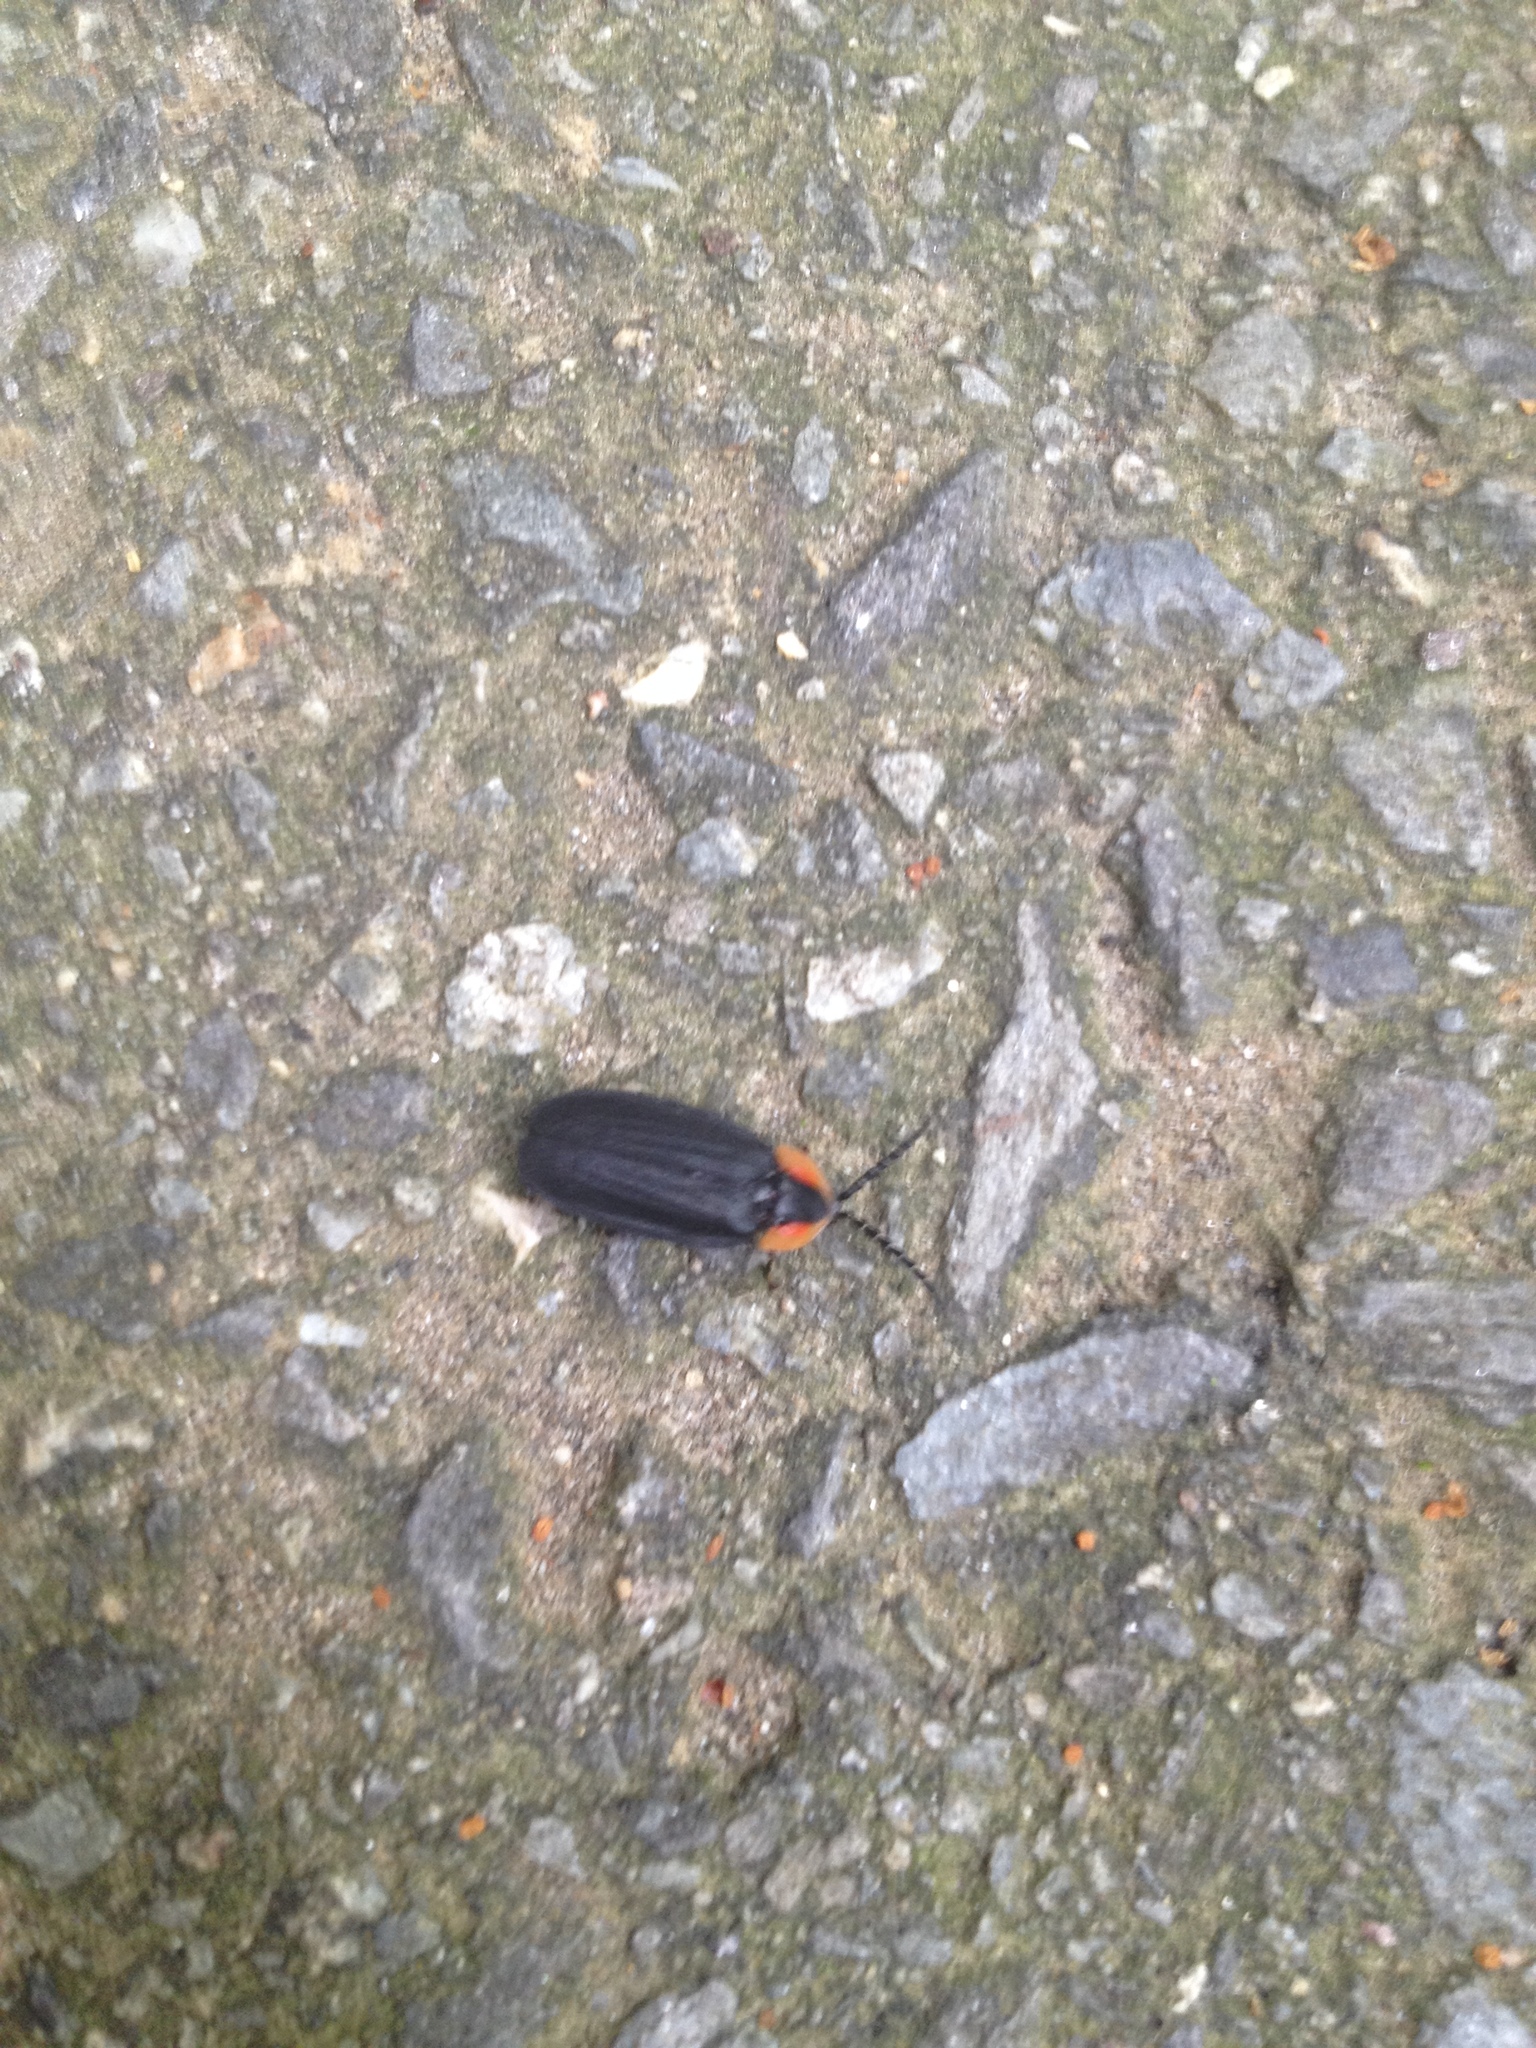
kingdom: Animalia
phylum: Arthropoda
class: Insecta
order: Coleoptera
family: Lampyridae
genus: Lucidota
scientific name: Lucidota atra
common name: Black firefly
